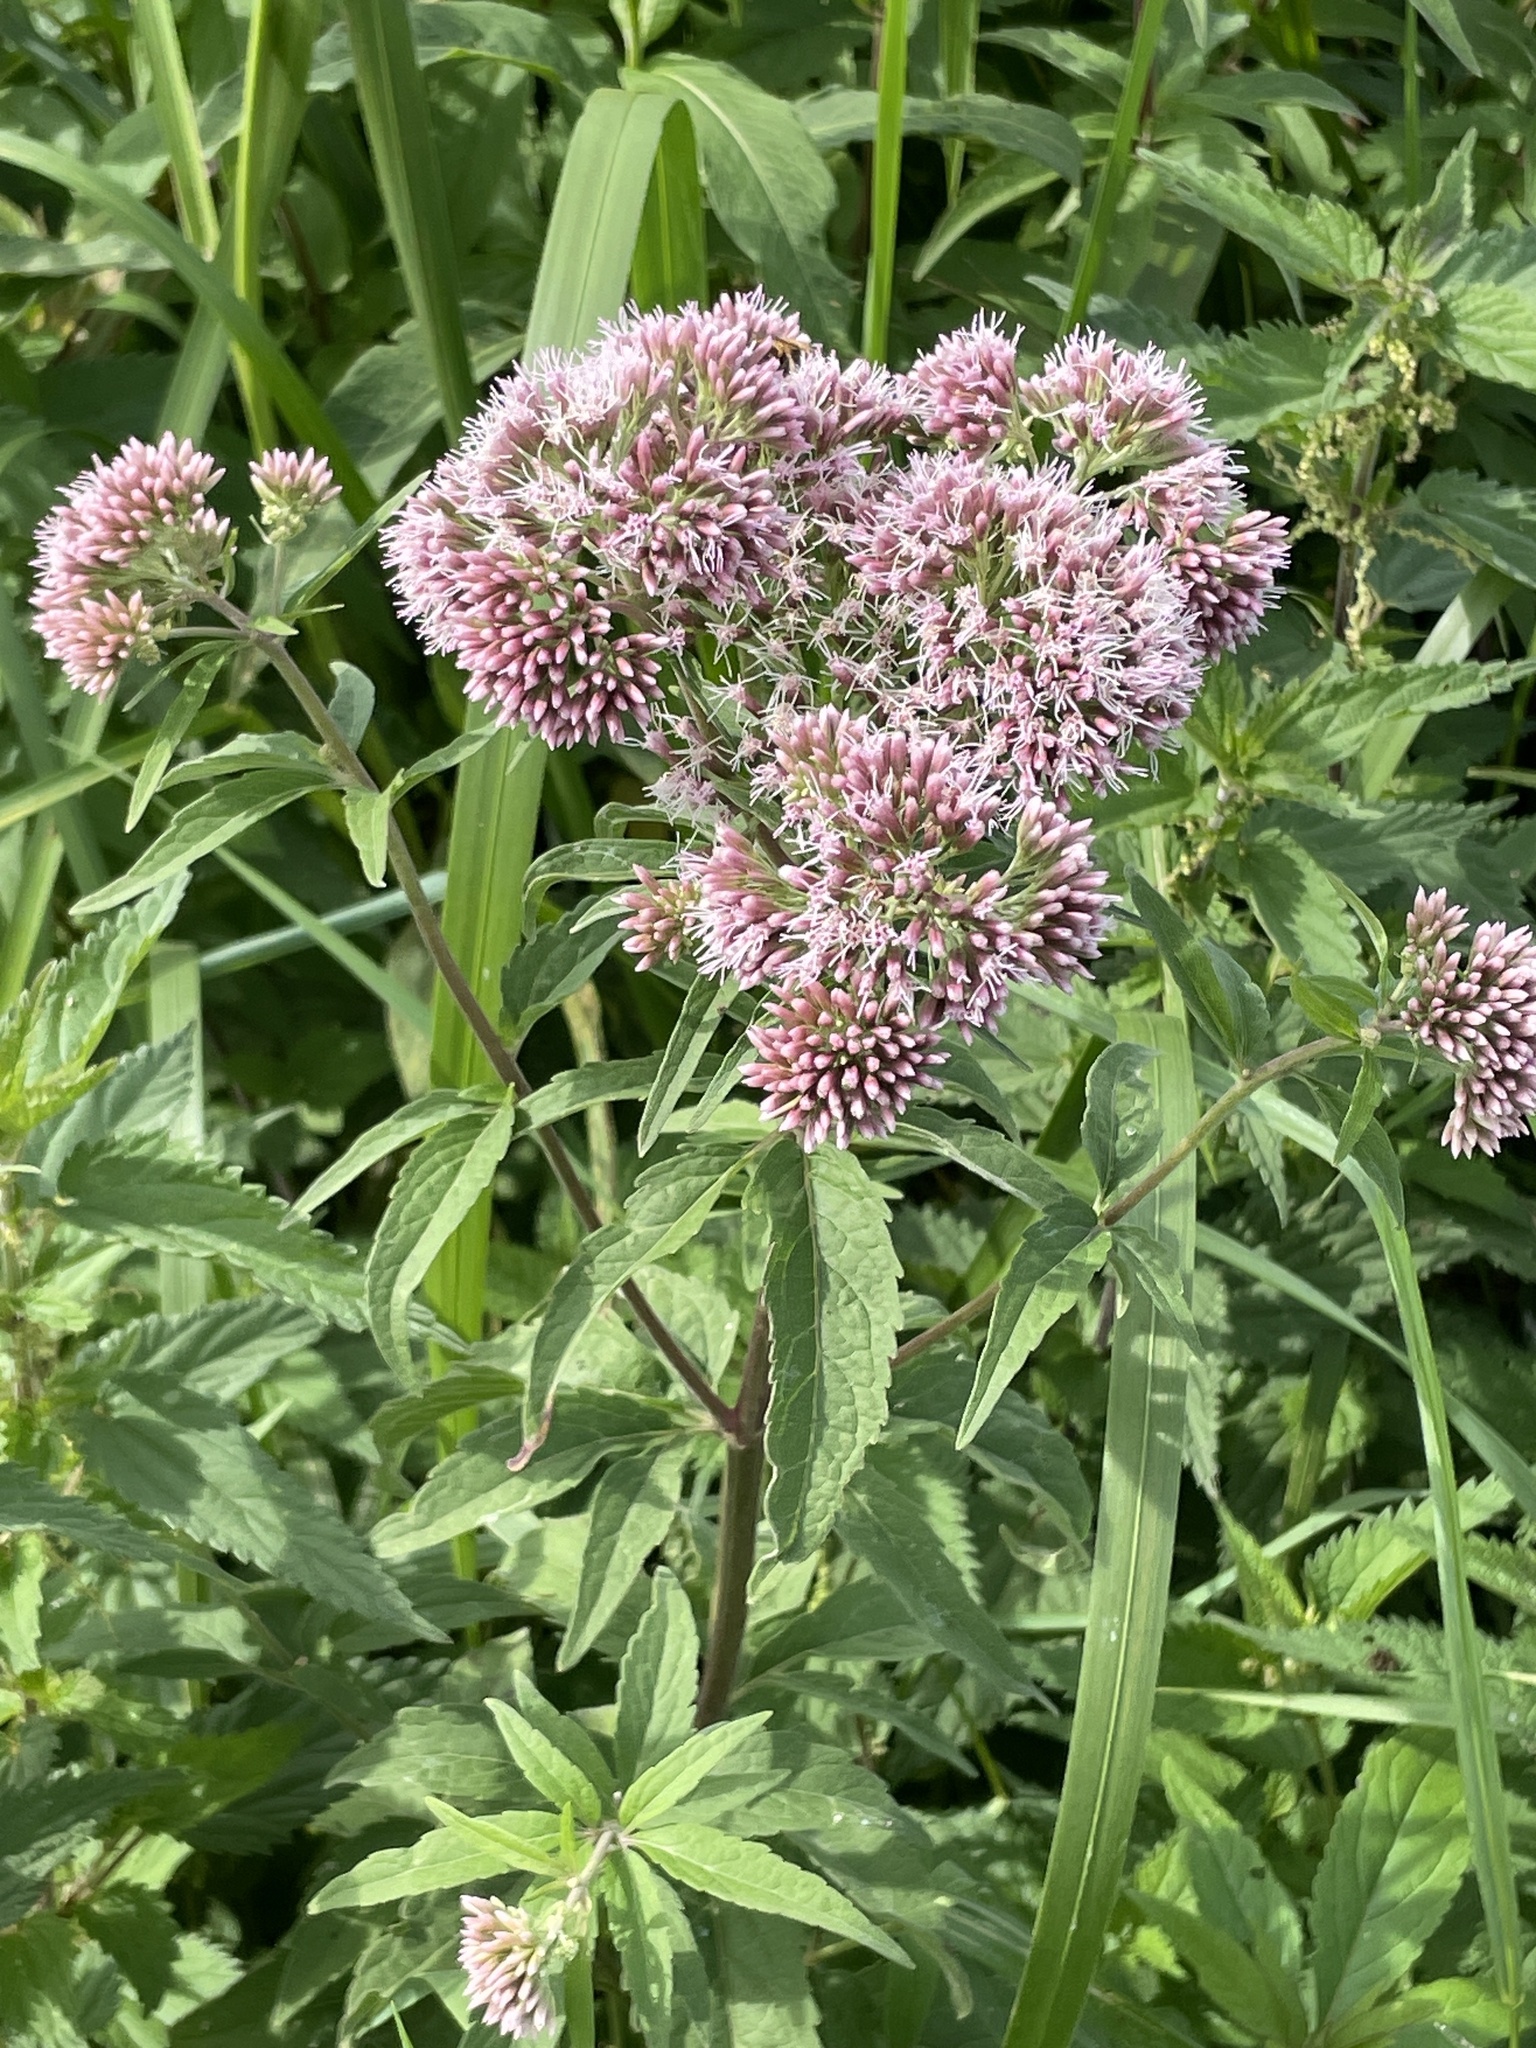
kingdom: Plantae
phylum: Tracheophyta
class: Magnoliopsida
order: Asterales
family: Asteraceae
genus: Eupatorium
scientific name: Eupatorium cannabinum
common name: Hemp-agrimony
